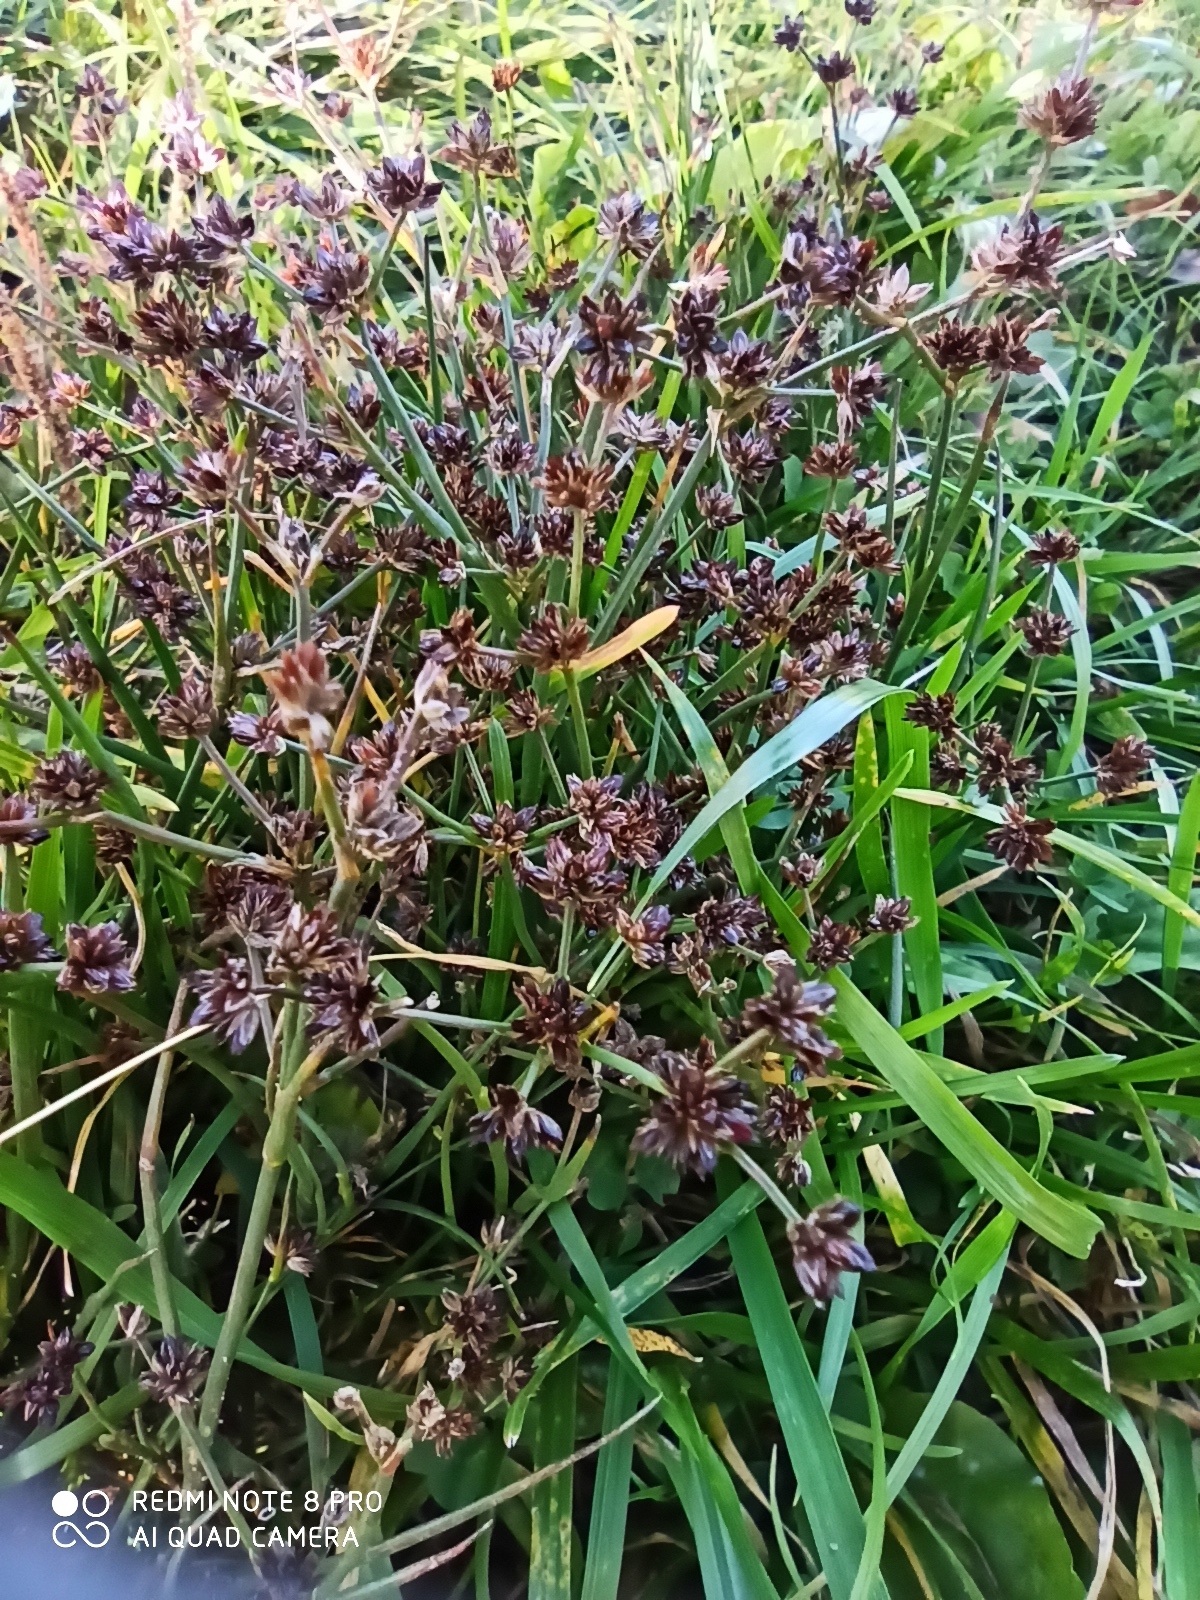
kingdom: Plantae
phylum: Tracheophyta
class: Liliopsida
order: Poales
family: Juncaceae
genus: Juncus
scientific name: Juncus articulatus
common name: Jointed rush
